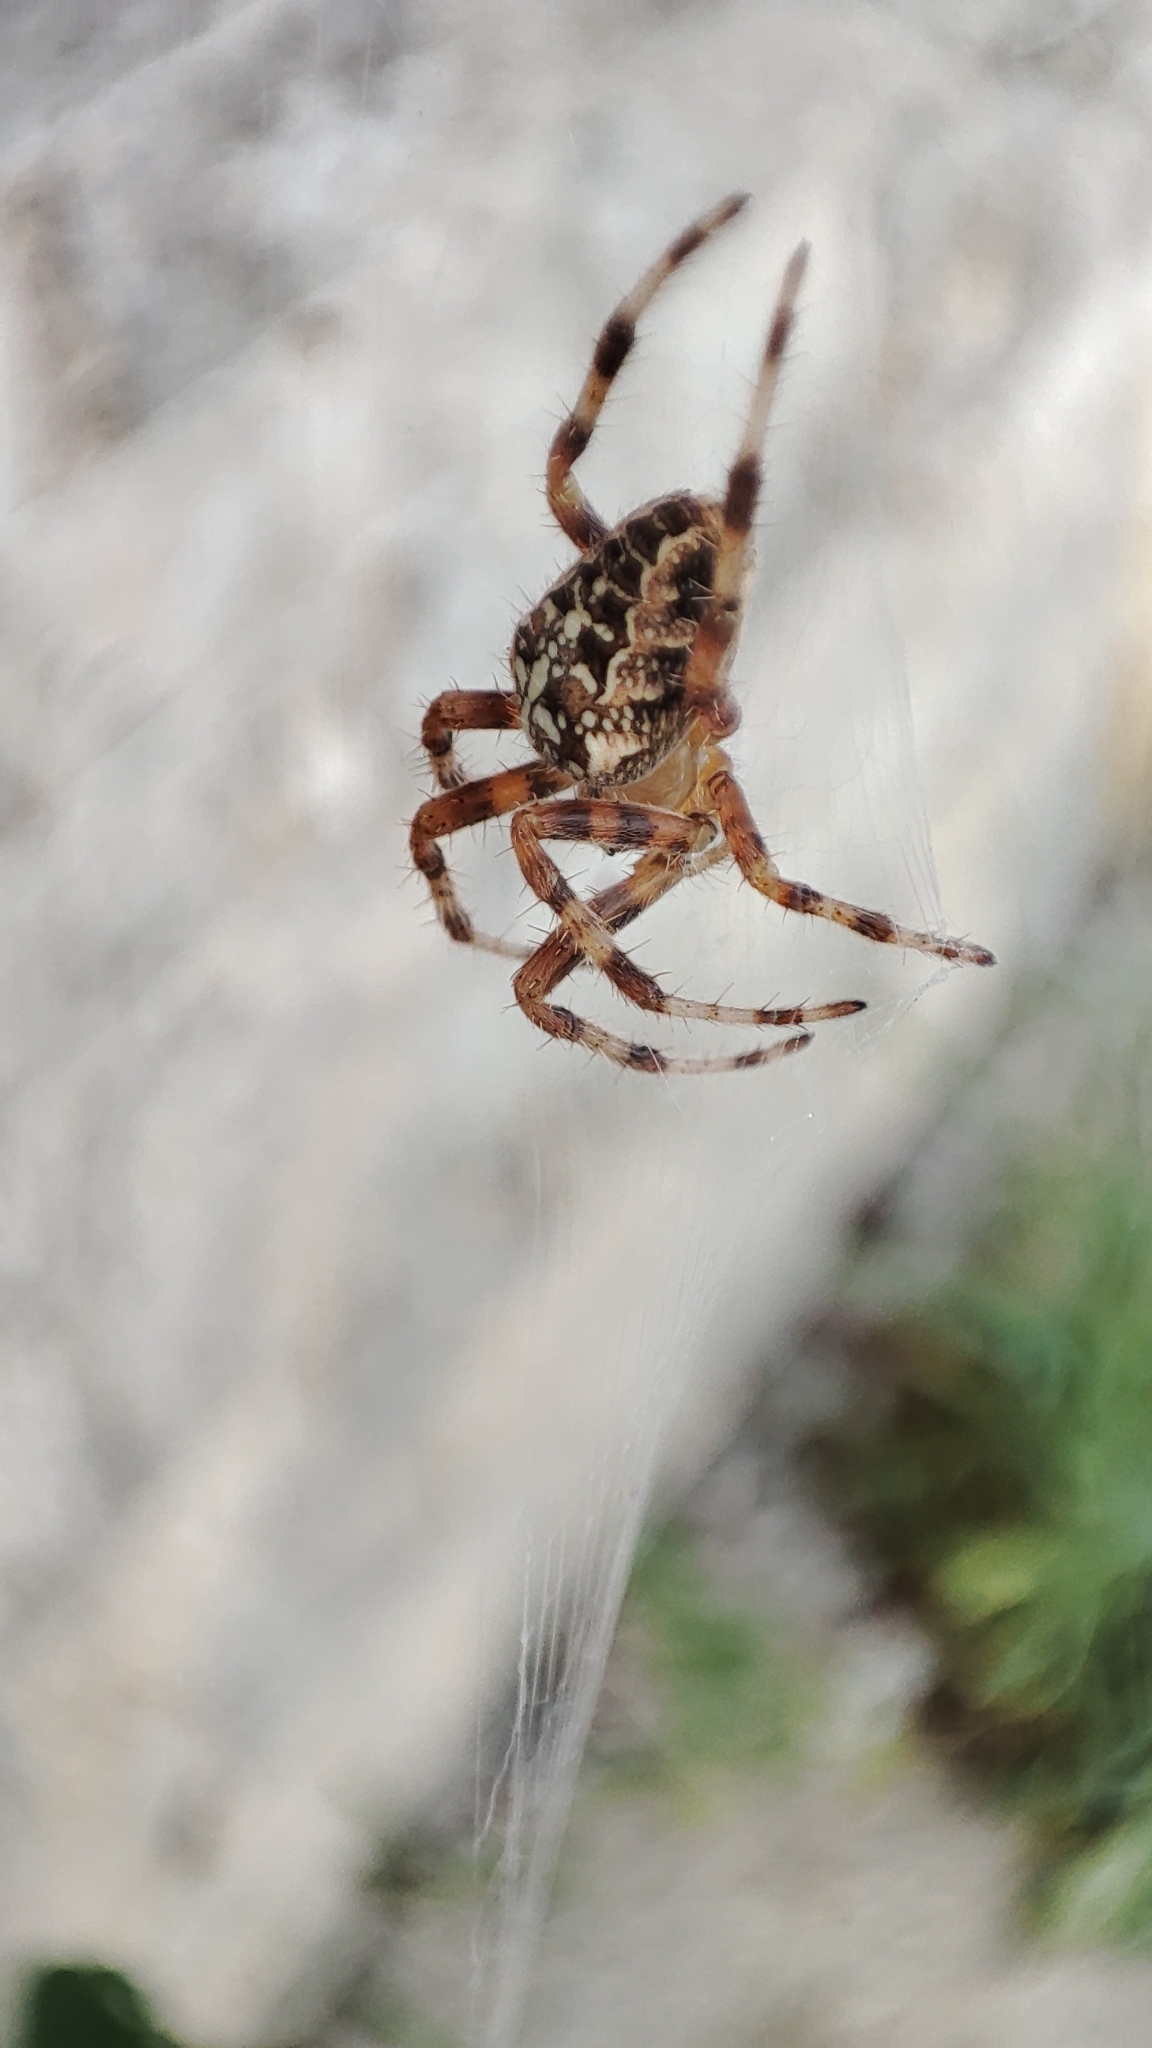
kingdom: Animalia
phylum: Arthropoda
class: Arachnida
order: Araneae
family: Araneidae
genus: Araneus
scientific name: Araneus diadematus
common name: Cross orbweaver
